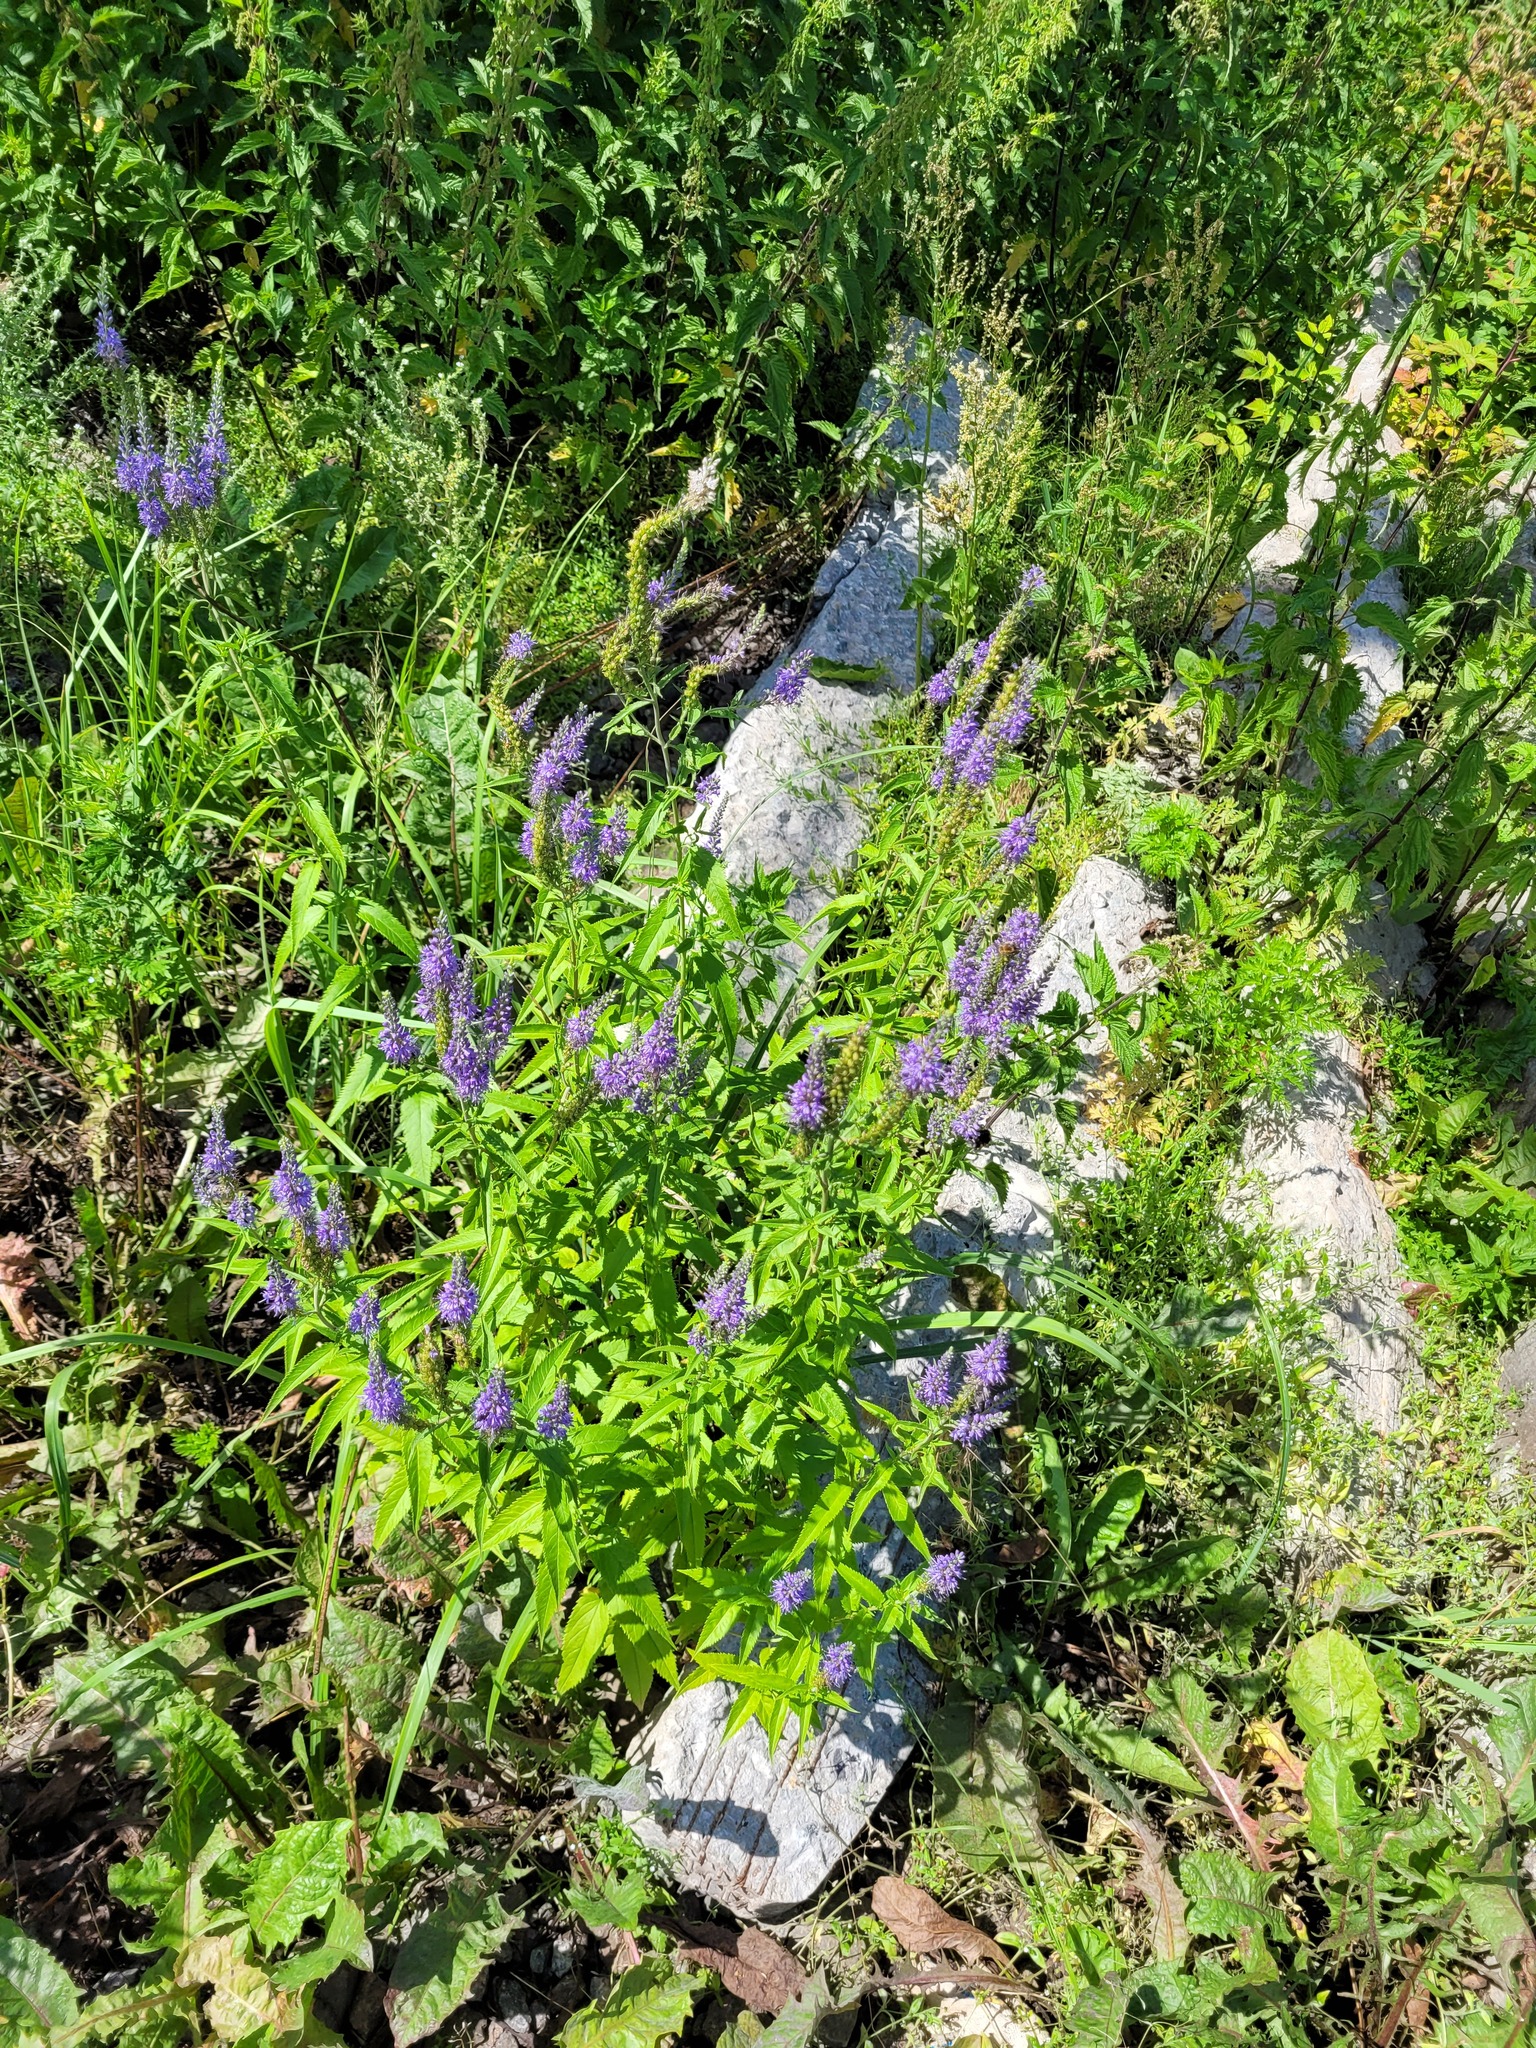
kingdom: Plantae
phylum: Tracheophyta
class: Magnoliopsida
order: Lamiales
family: Plantaginaceae
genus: Veronica
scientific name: Veronica longifolia
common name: Garden speedwell
